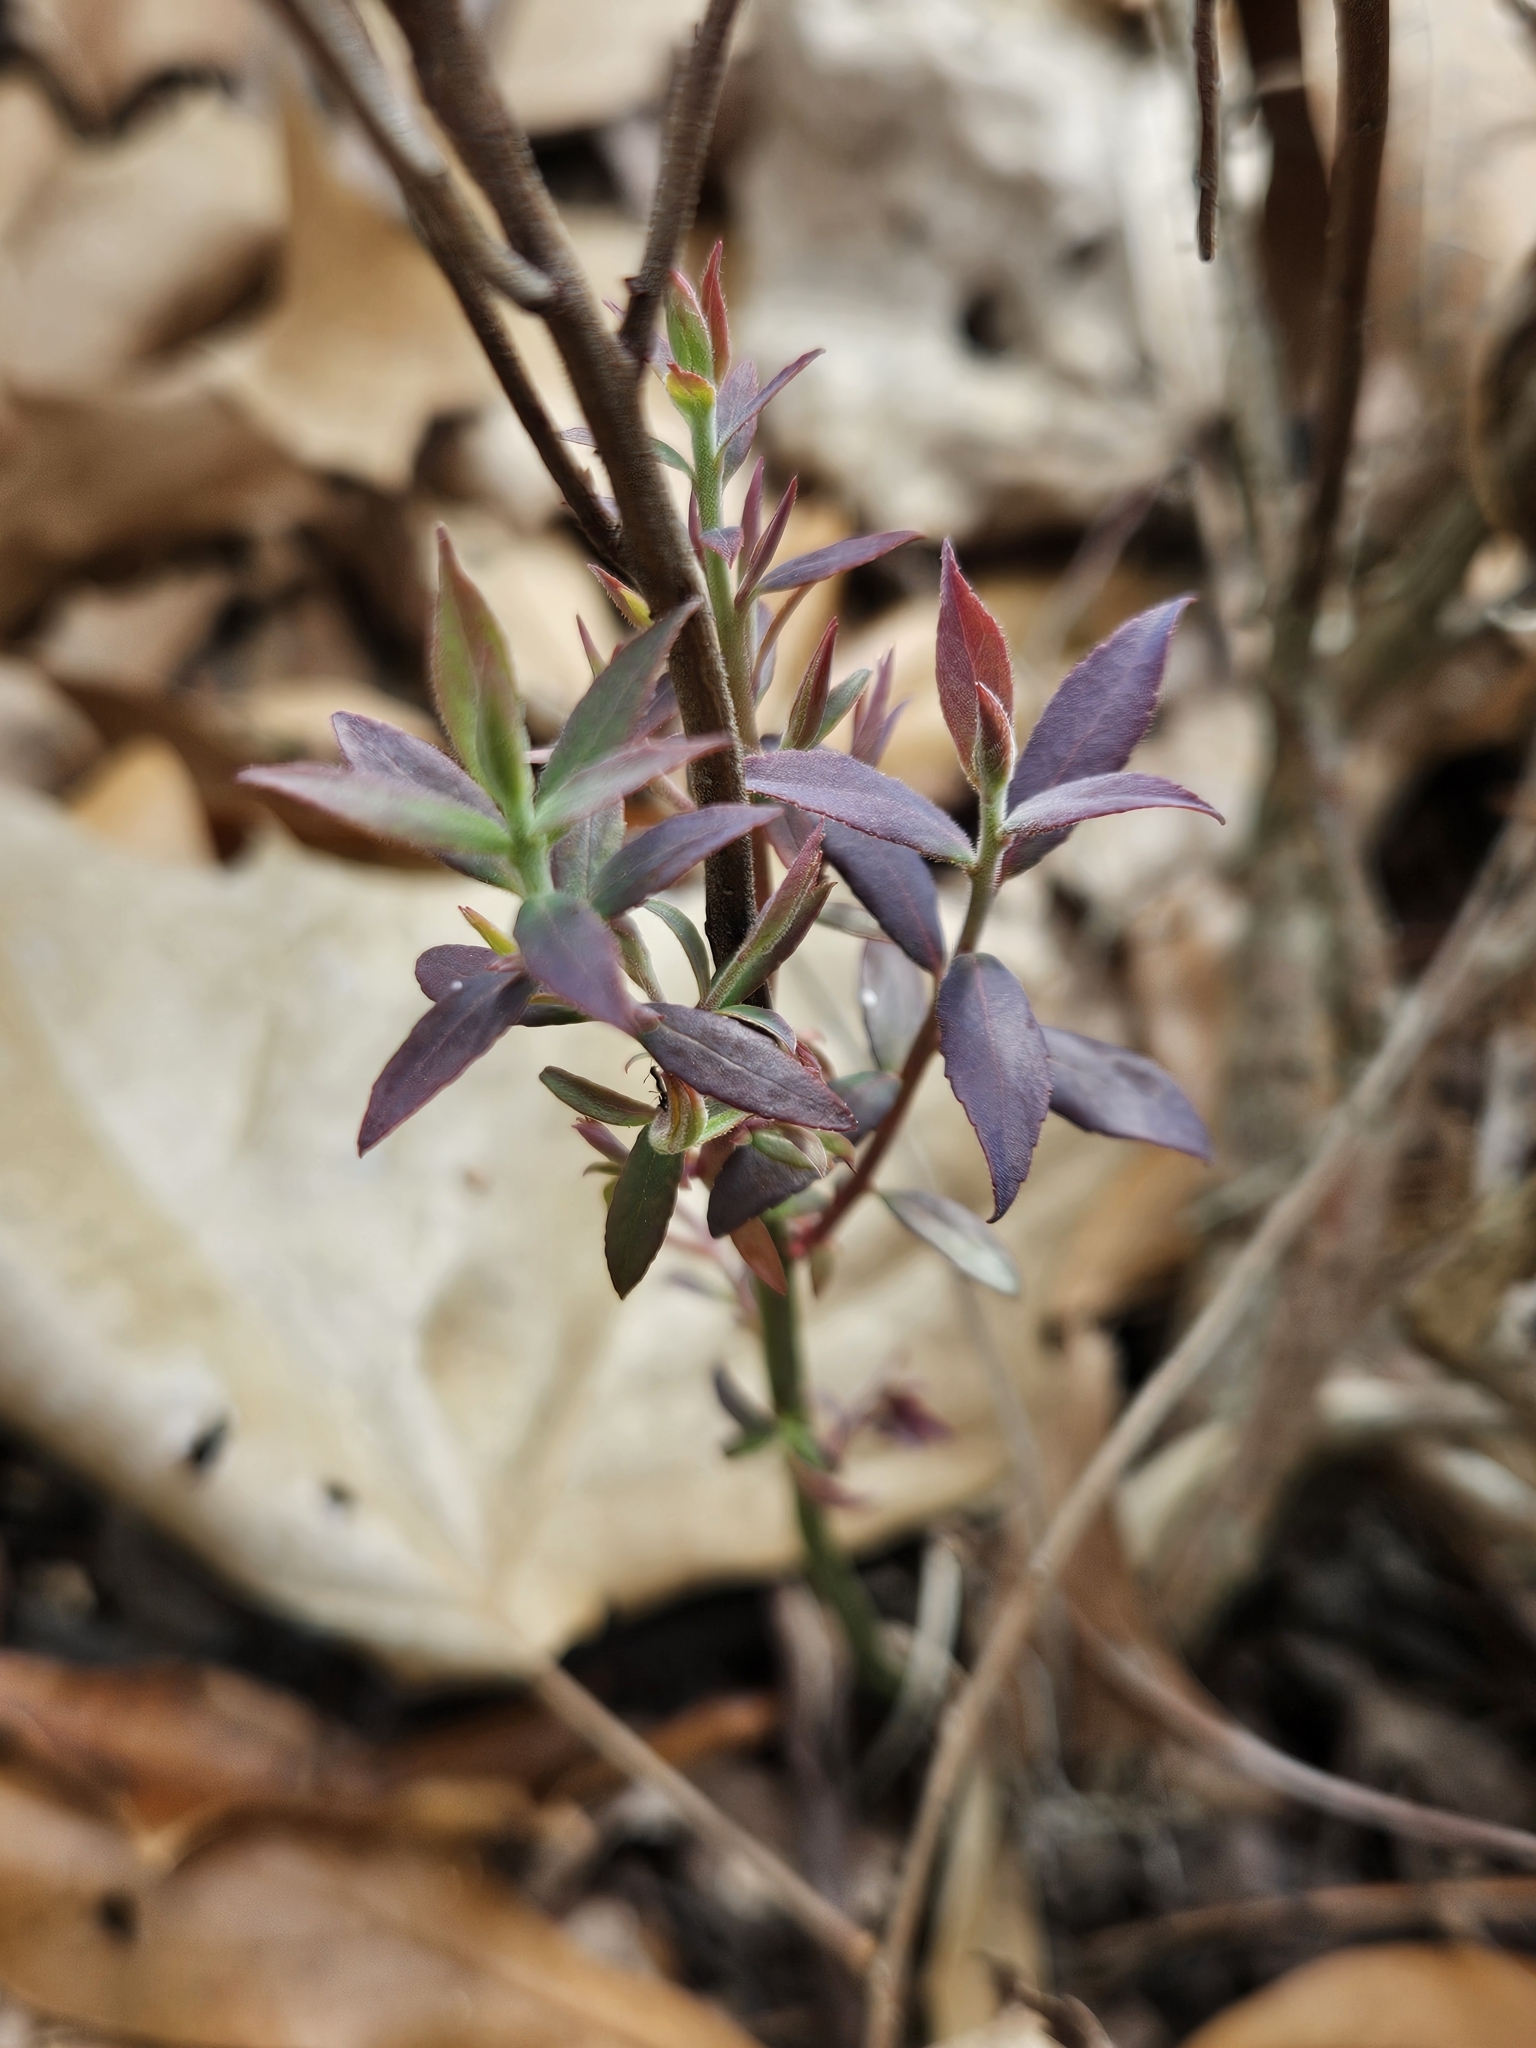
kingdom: Plantae
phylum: Tracheophyta
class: Magnoliopsida
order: Ericales
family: Ericaceae
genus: Vaccinium
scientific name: Vaccinium darrowii
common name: Darrow's blueberry
